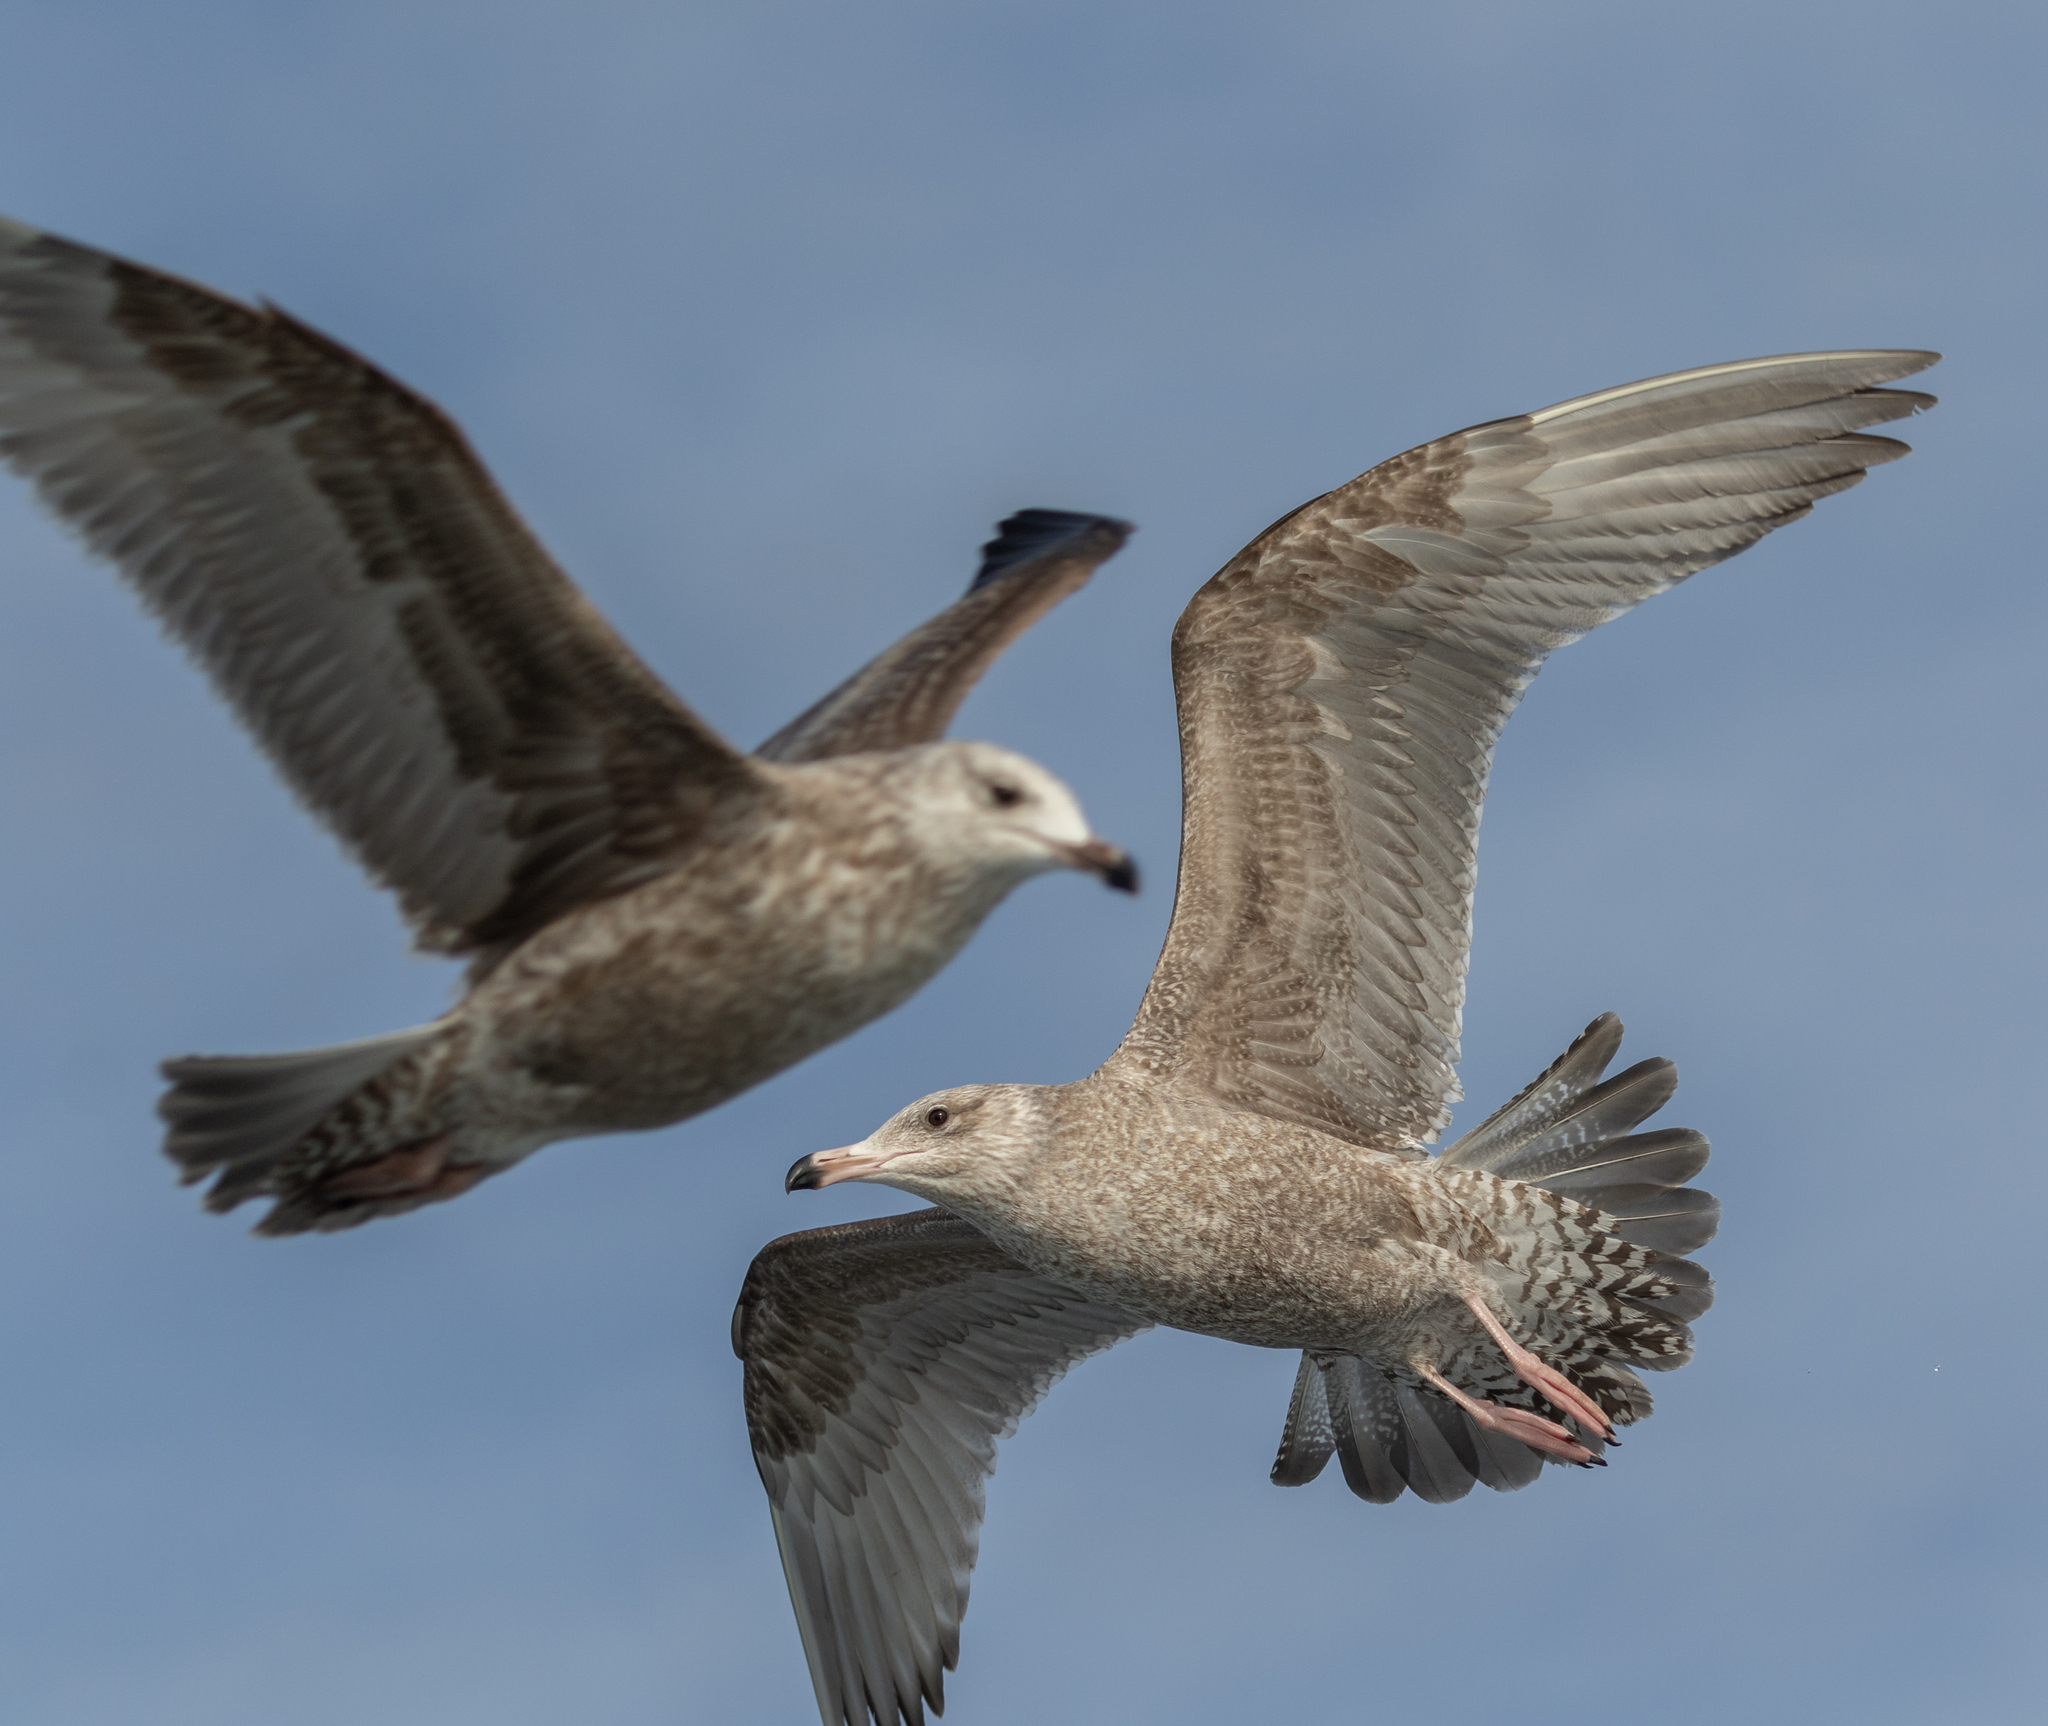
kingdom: Animalia
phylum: Chordata
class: Aves
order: Charadriiformes
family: Laridae
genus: Larus
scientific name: Larus argentatus
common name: Herring gull
